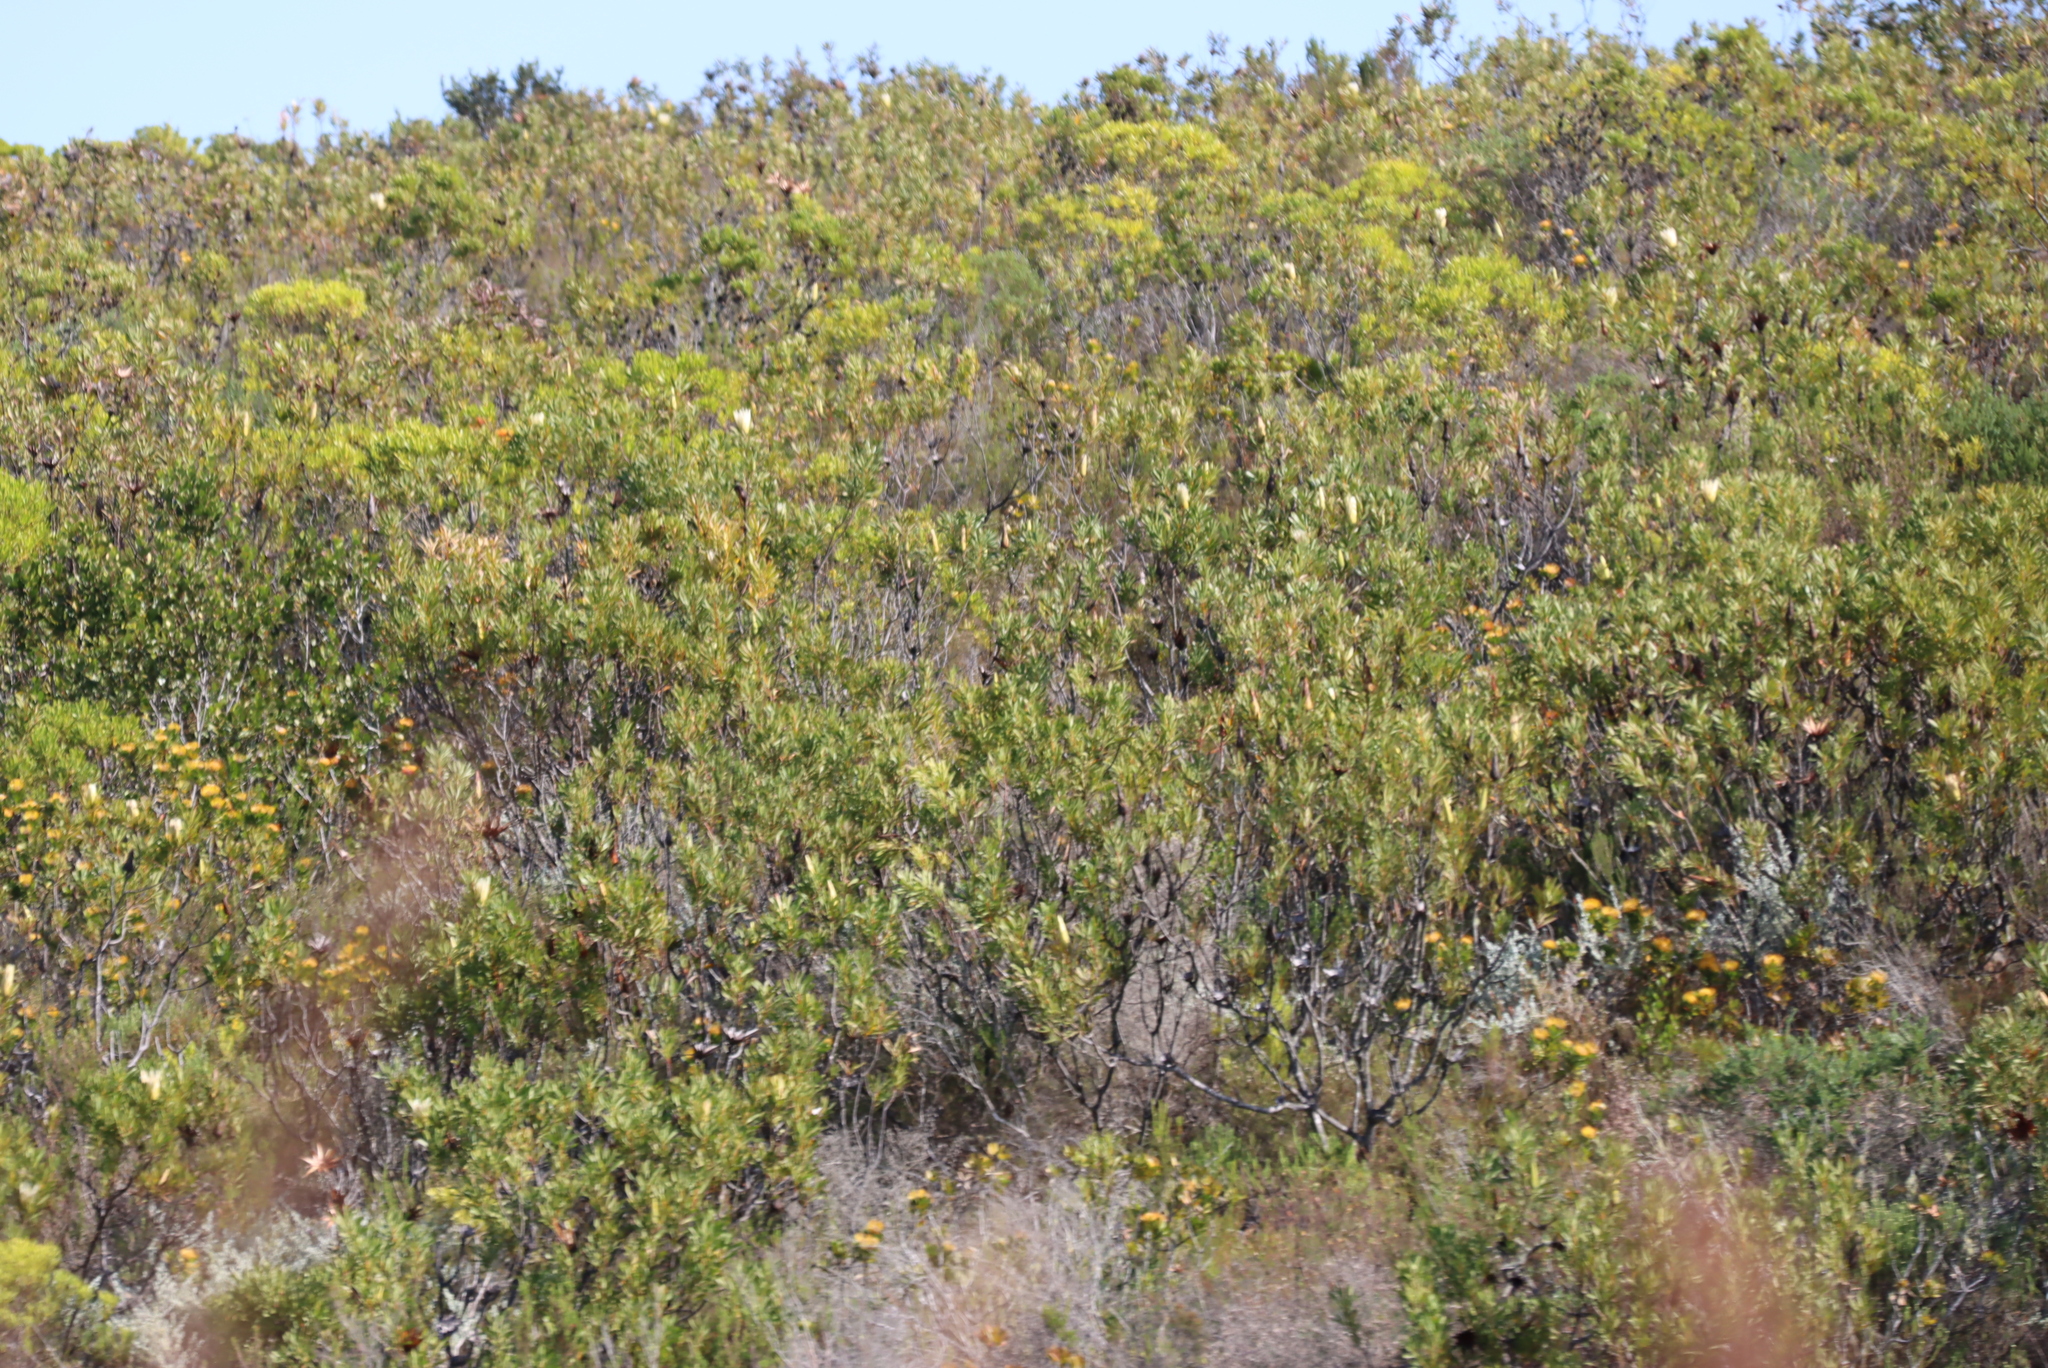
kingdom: Plantae
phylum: Tracheophyta
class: Magnoliopsida
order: Proteales
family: Proteaceae
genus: Protea
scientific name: Protea repens
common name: Sugarbush
